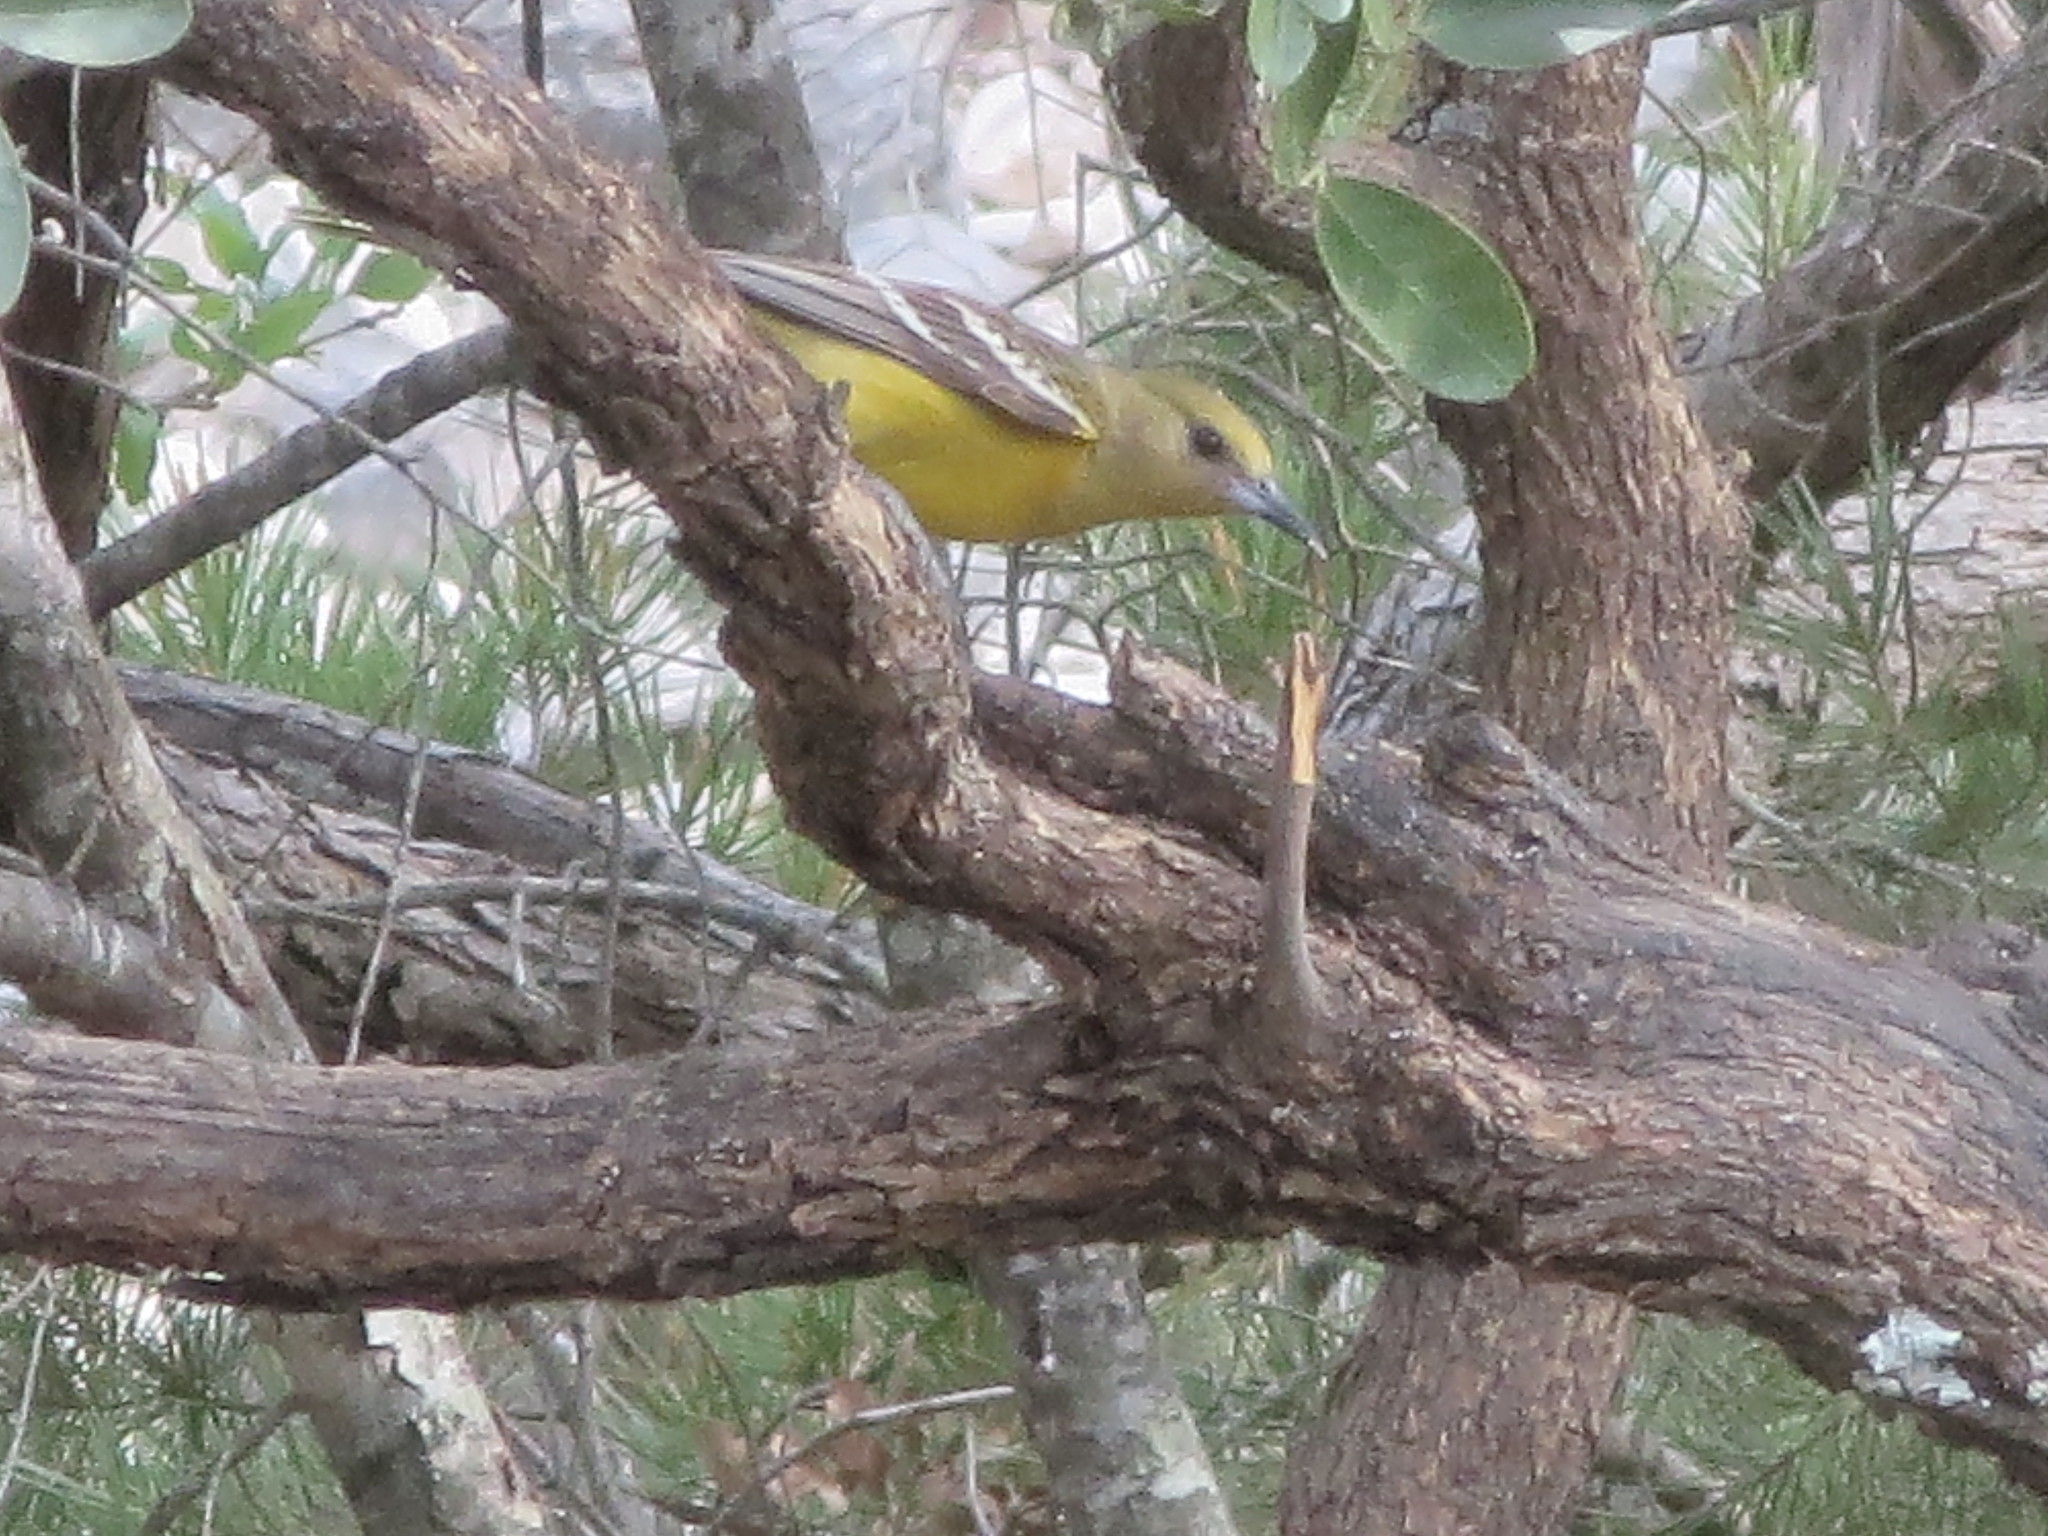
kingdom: Animalia
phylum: Chordata
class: Aves
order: Passeriformes
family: Icteridae
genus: Icterus
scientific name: Icterus cucullatus
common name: Hooded oriole
